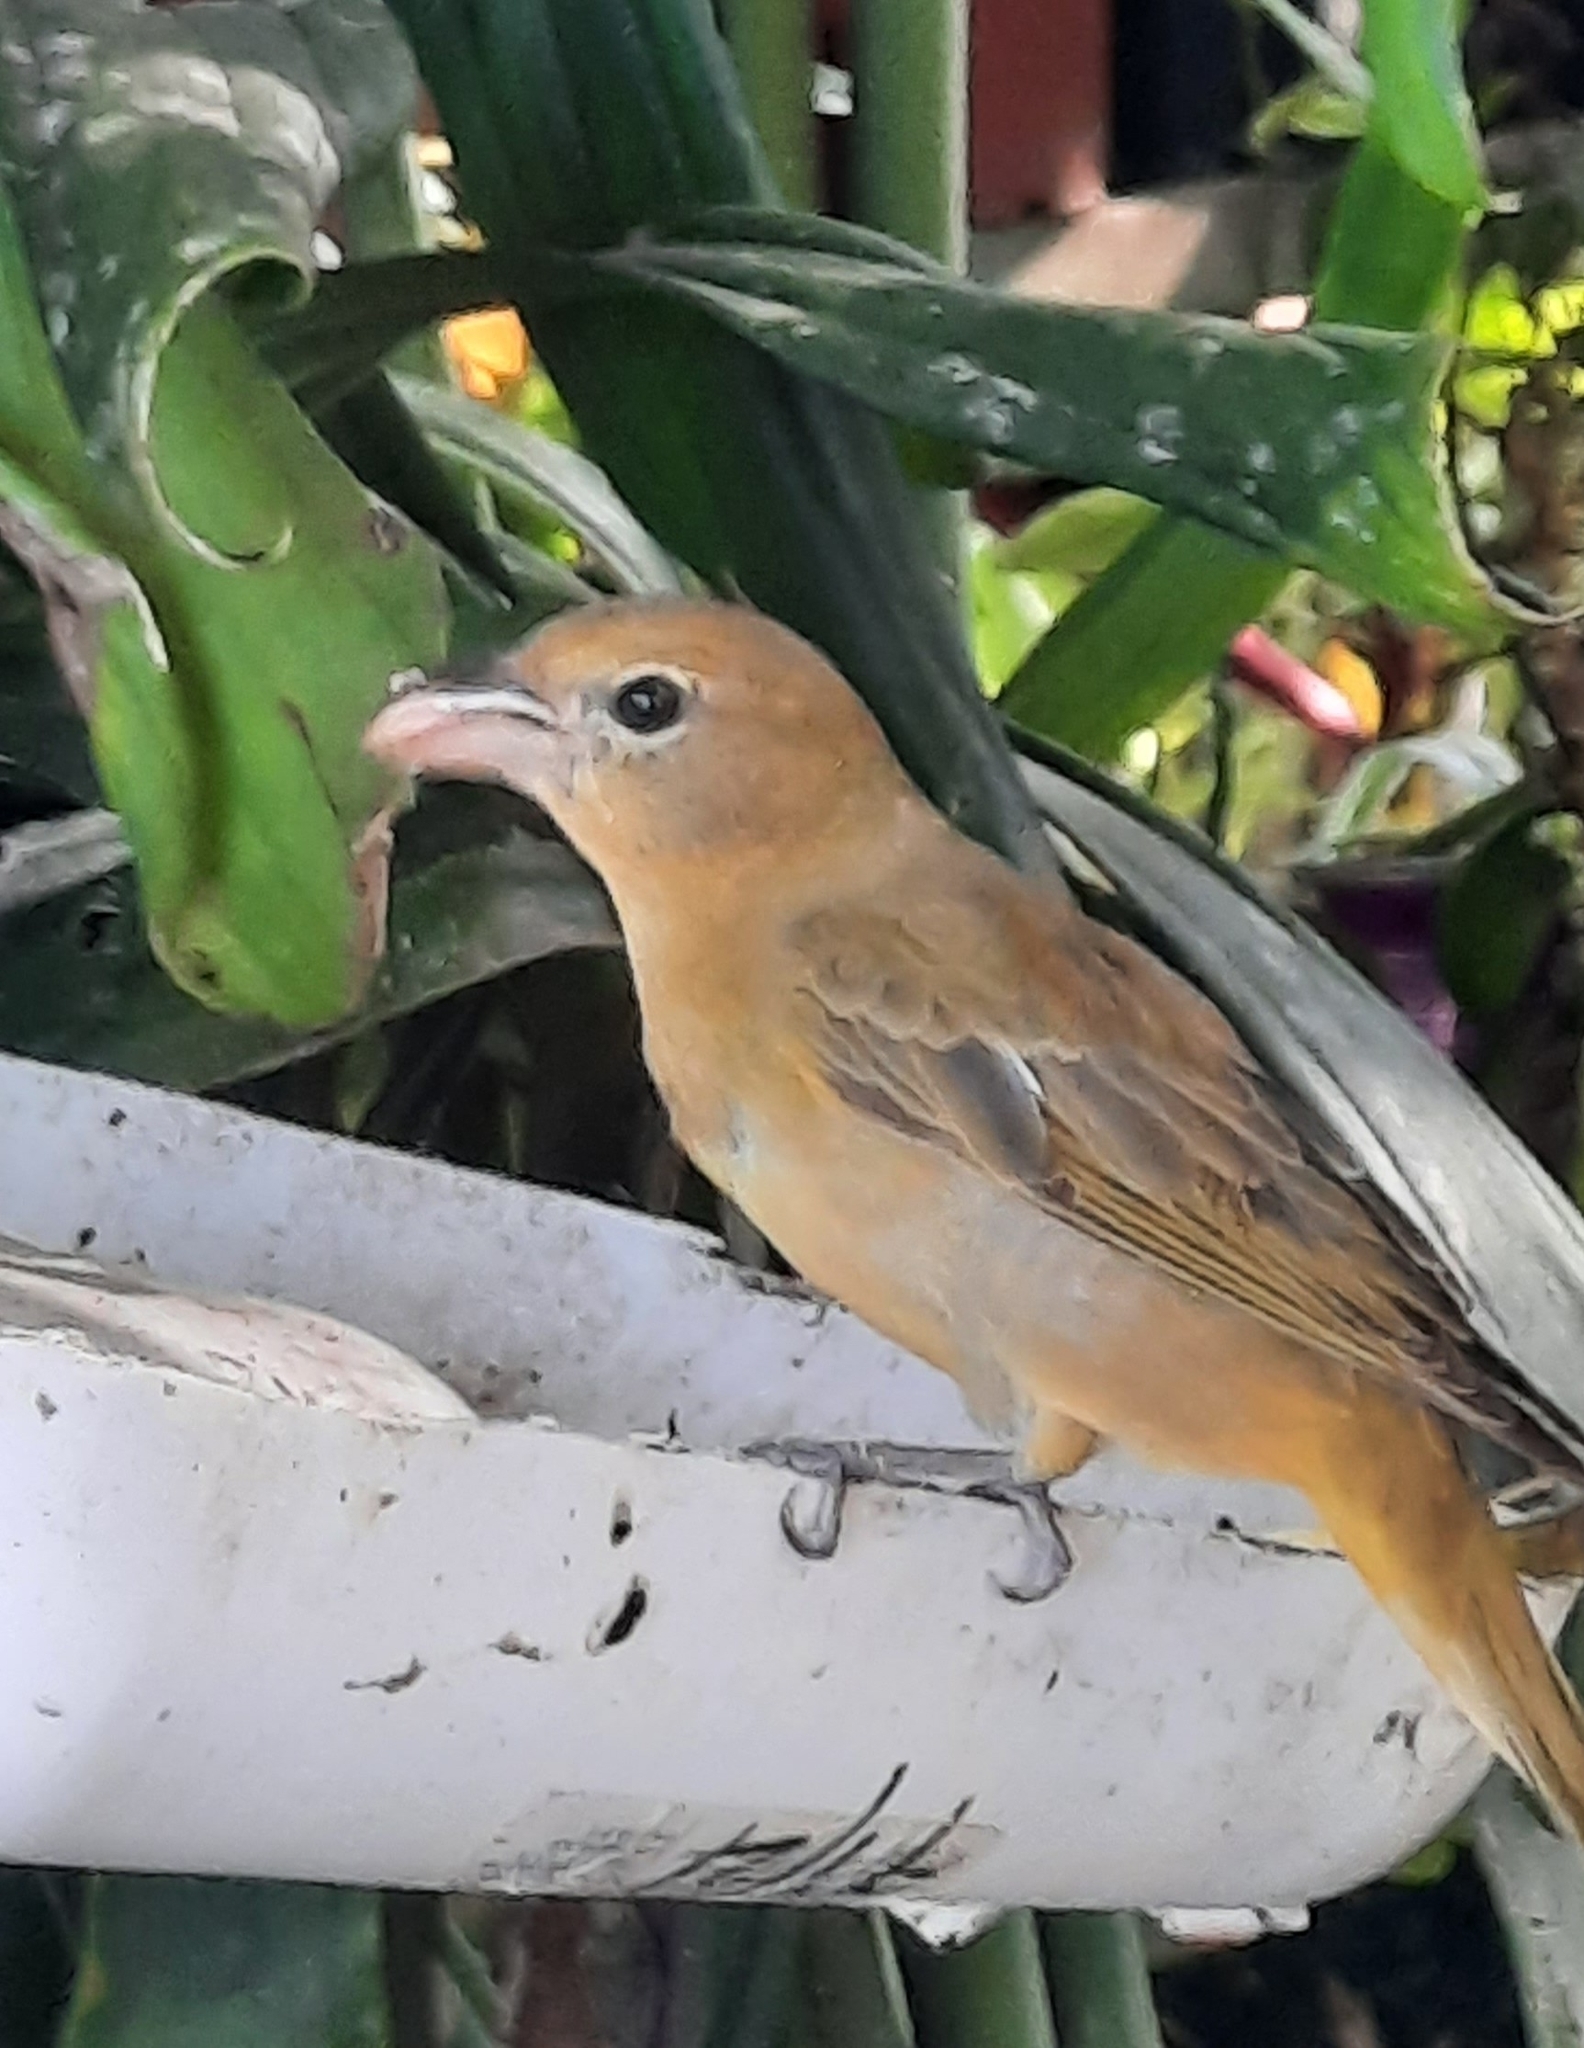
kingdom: Animalia
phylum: Chordata
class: Aves
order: Passeriformes
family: Cardinalidae
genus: Piranga
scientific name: Piranga rubra
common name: Summer tanager
